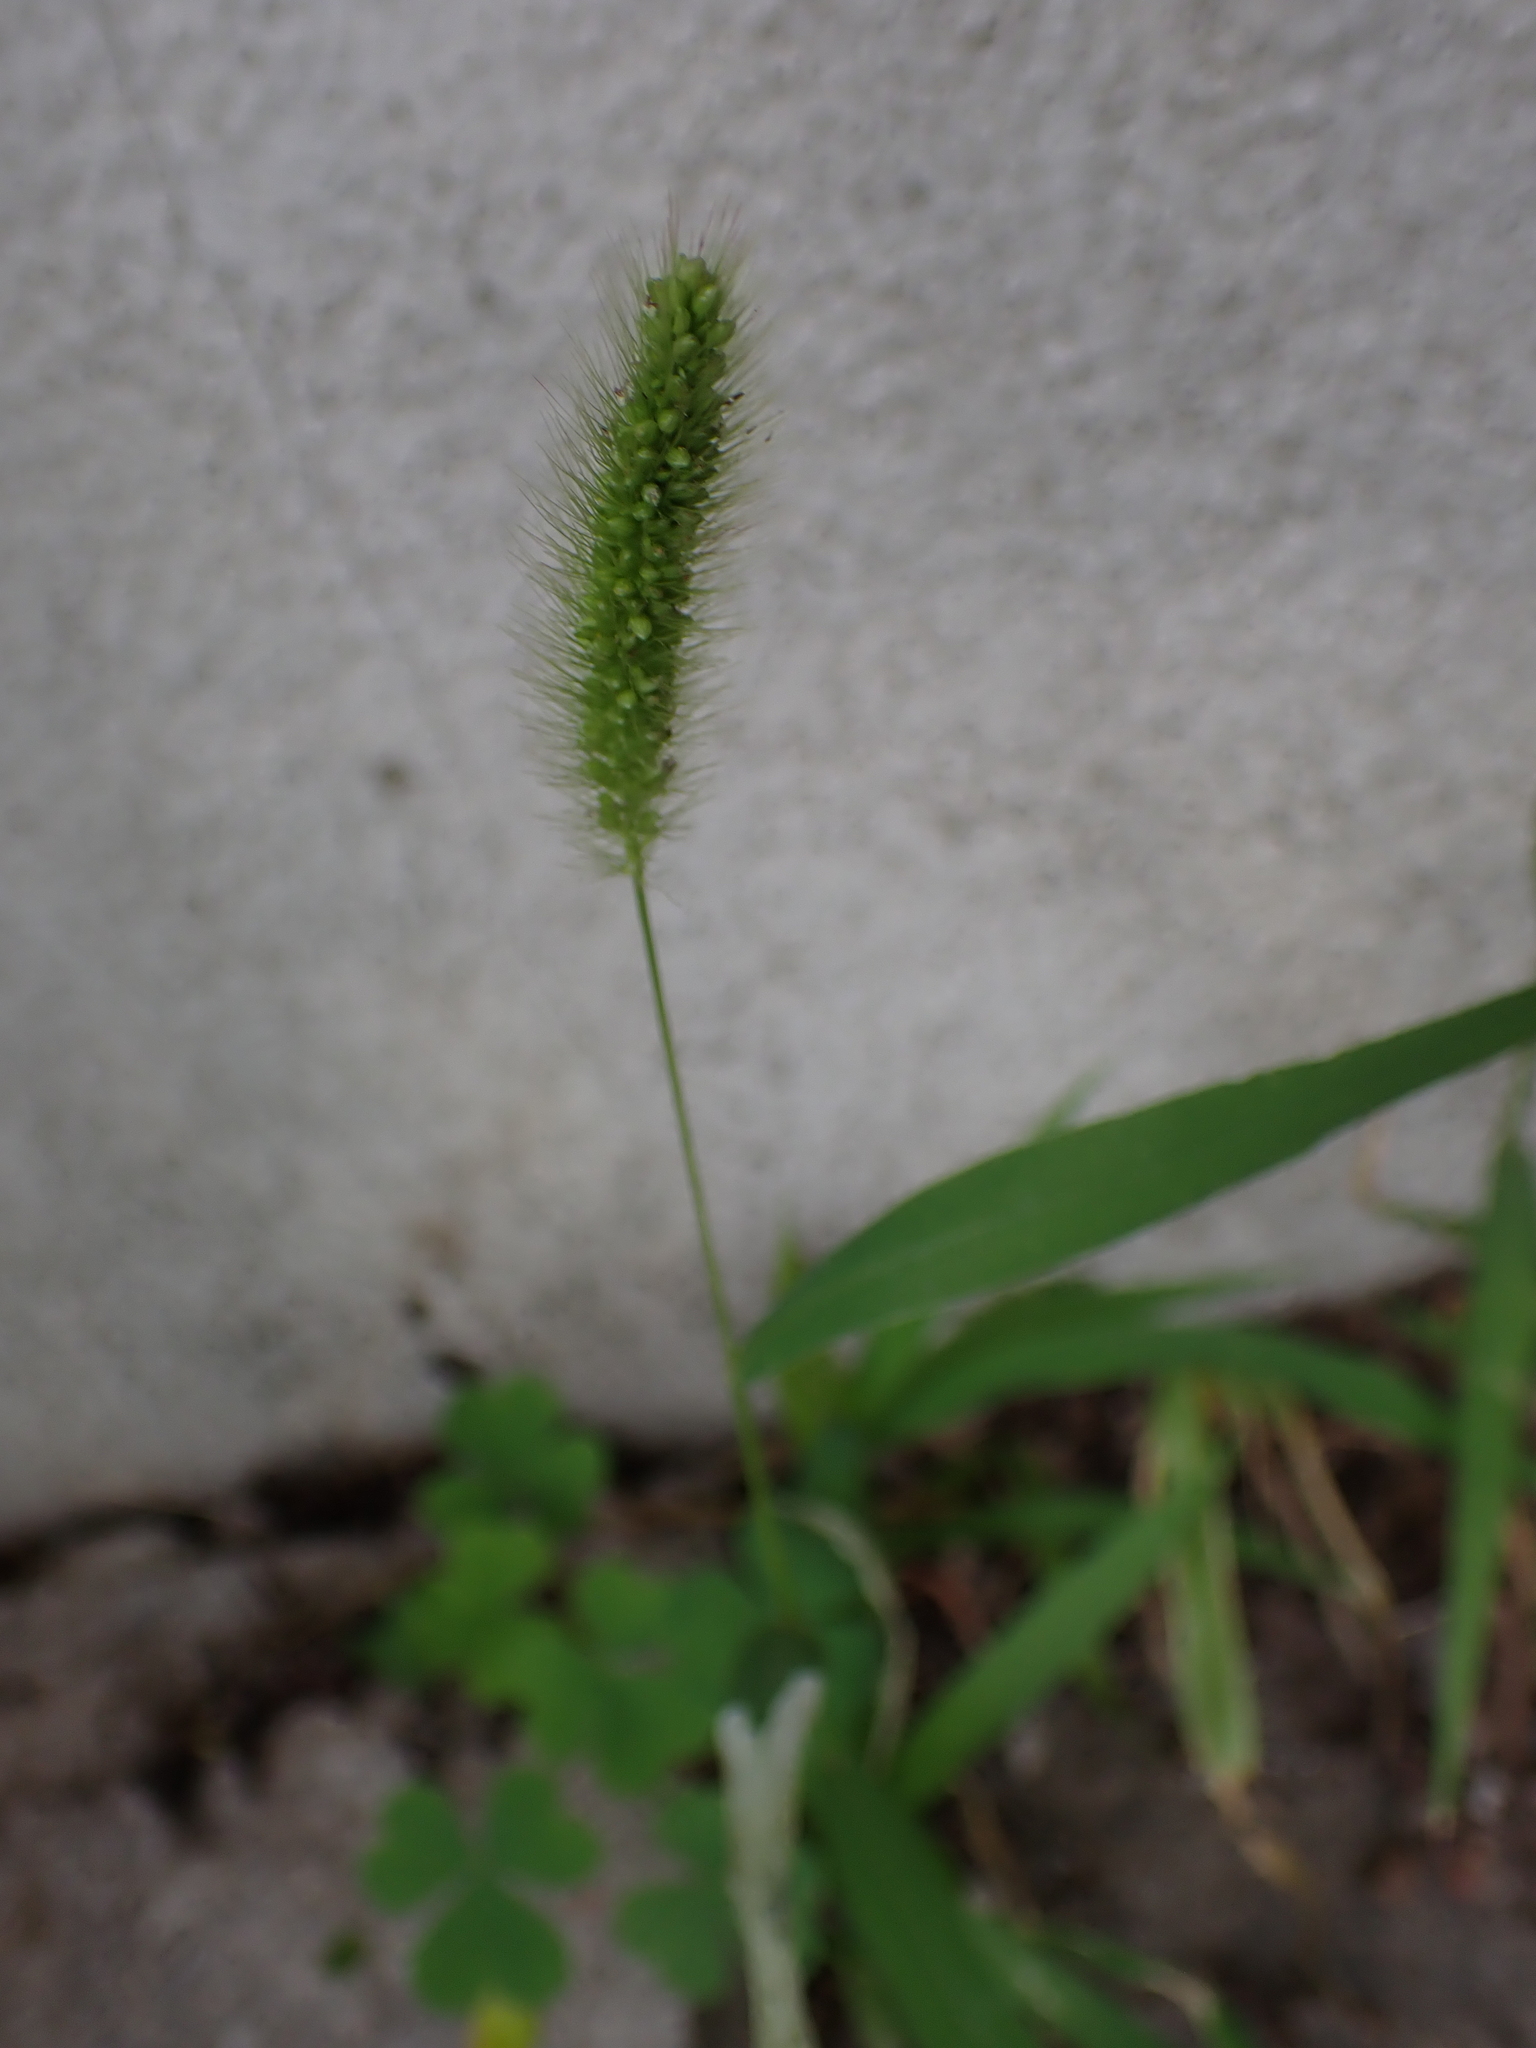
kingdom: Plantae
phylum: Tracheophyta
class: Liliopsida
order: Poales
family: Poaceae
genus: Setaria
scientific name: Setaria viridis
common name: Green bristlegrass
